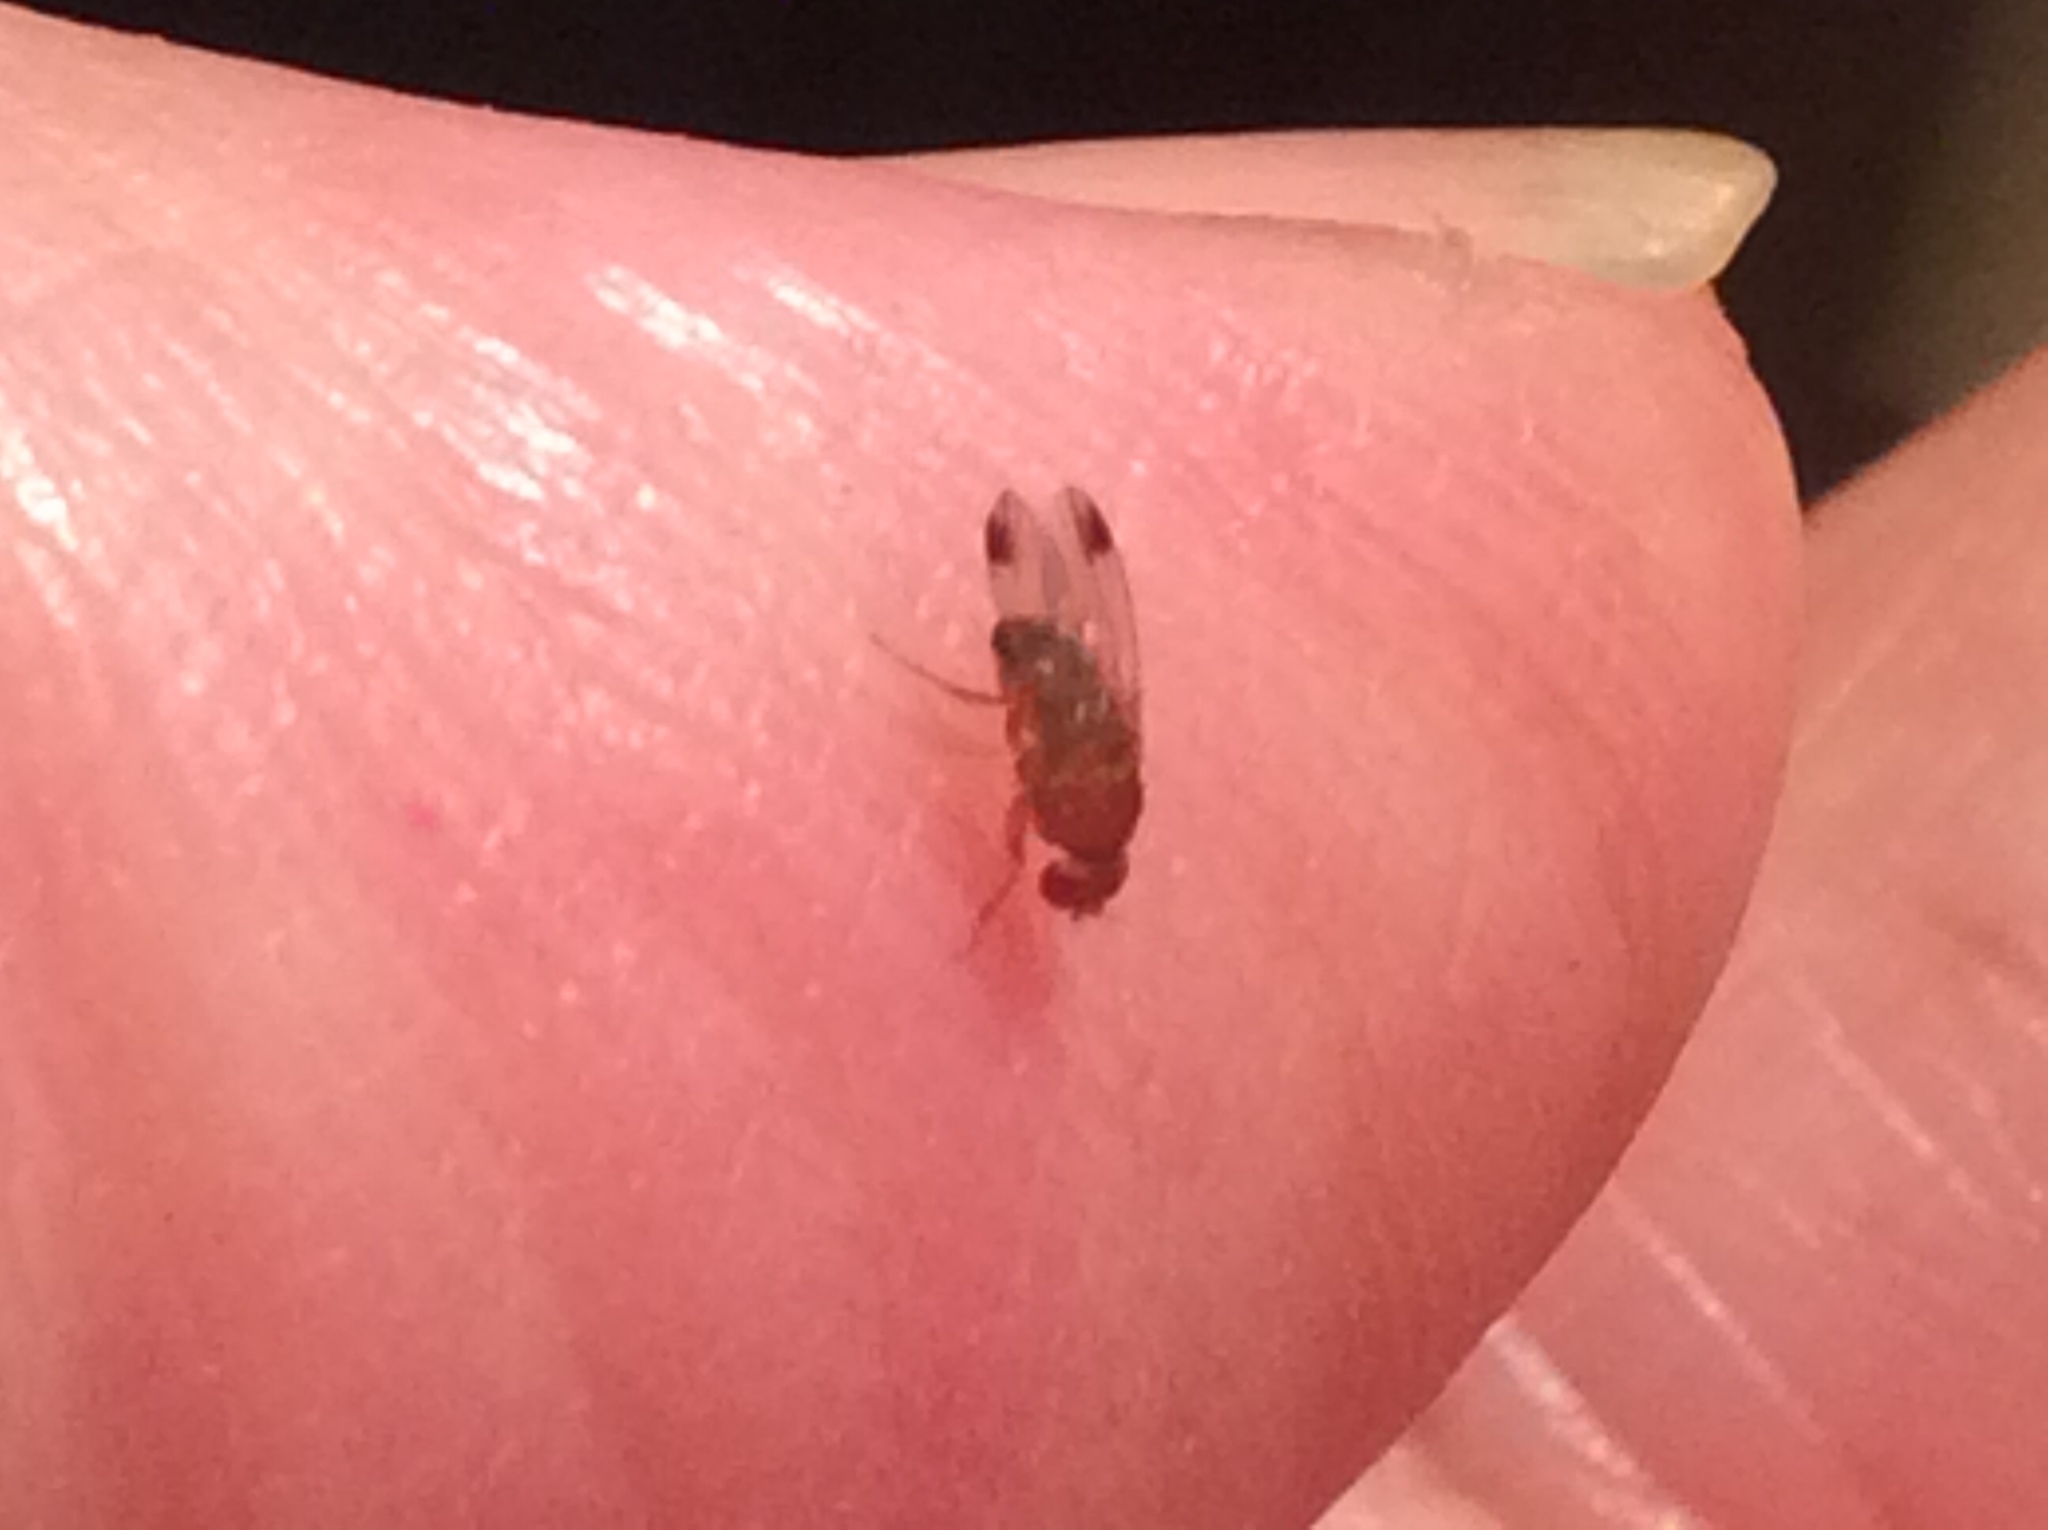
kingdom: Animalia
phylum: Arthropoda
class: Insecta
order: Diptera
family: Drosophilidae
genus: Drosophila
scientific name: Drosophila suzukii
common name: Spotted-wing drosophila
